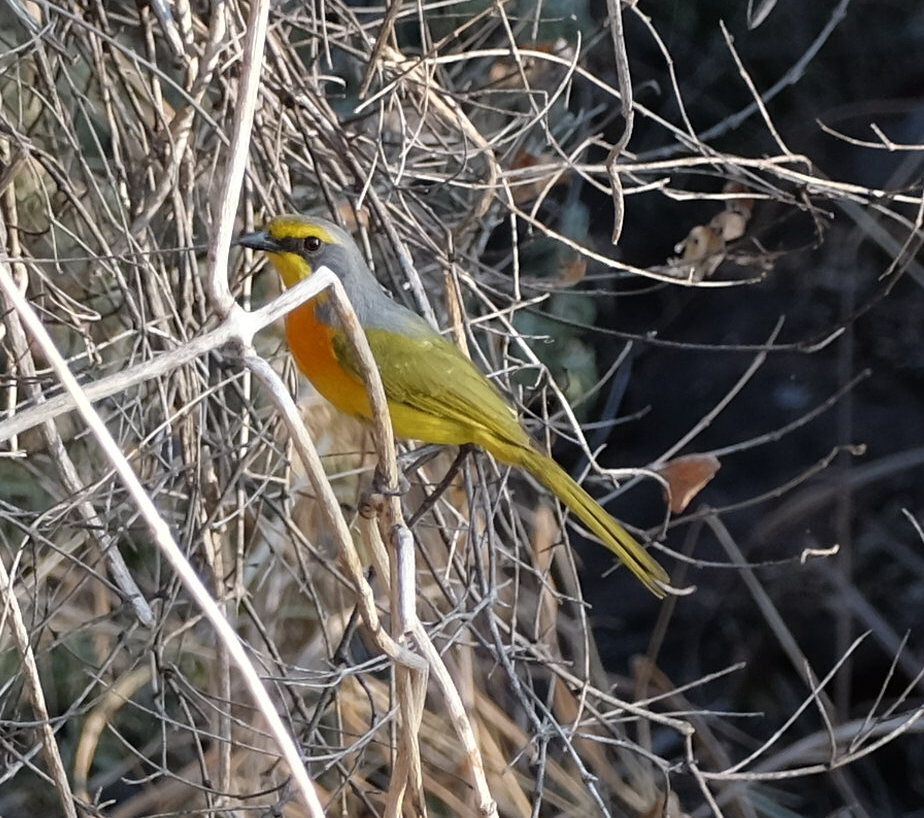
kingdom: Animalia
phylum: Chordata
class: Aves
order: Passeriformes
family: Malaconotidae
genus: Chlorophoneus
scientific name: Chlorophoneus sulfureopectus
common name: Orange-breasted bushshrike
